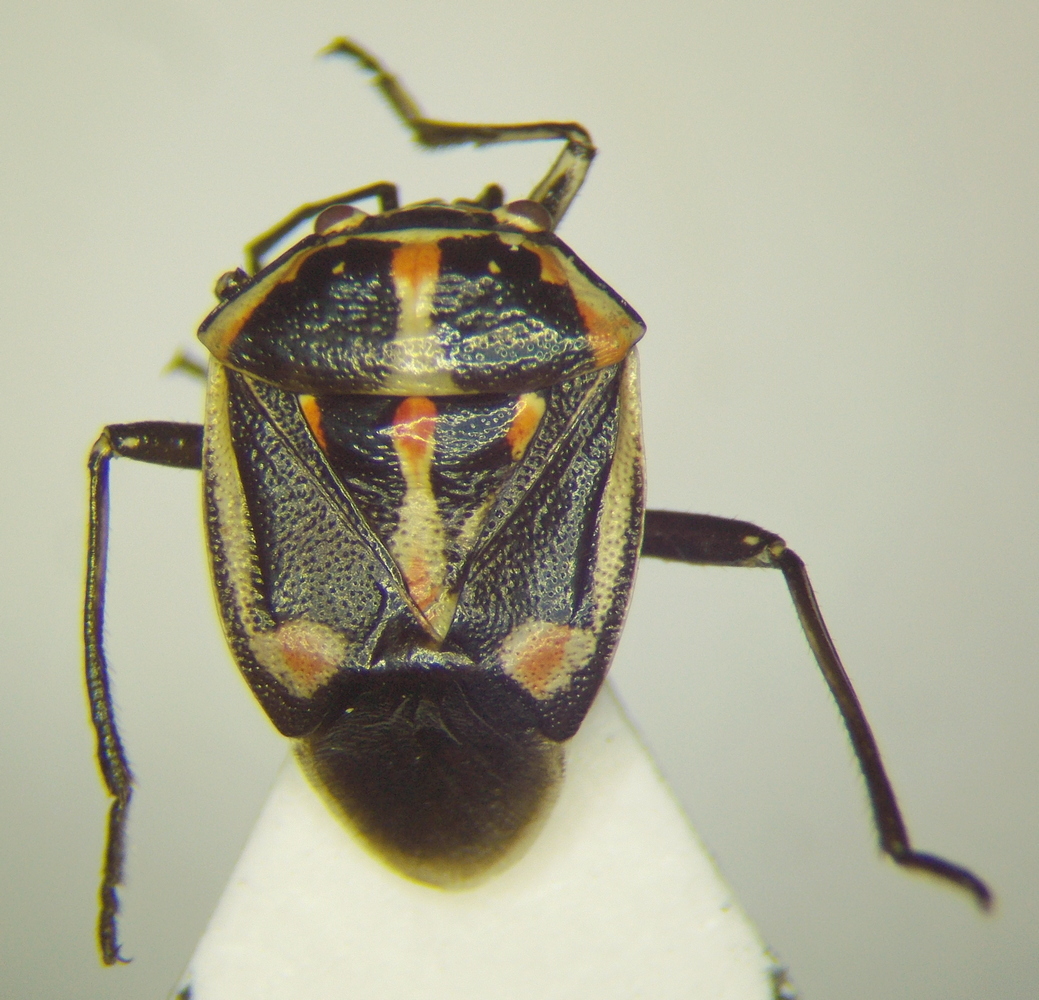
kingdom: Animalia
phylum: Arthropoda
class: Insecta
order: Hemiptera
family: Pentatomidae
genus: Bagrada
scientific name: Bagrada hilaris
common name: Bagrada bug
